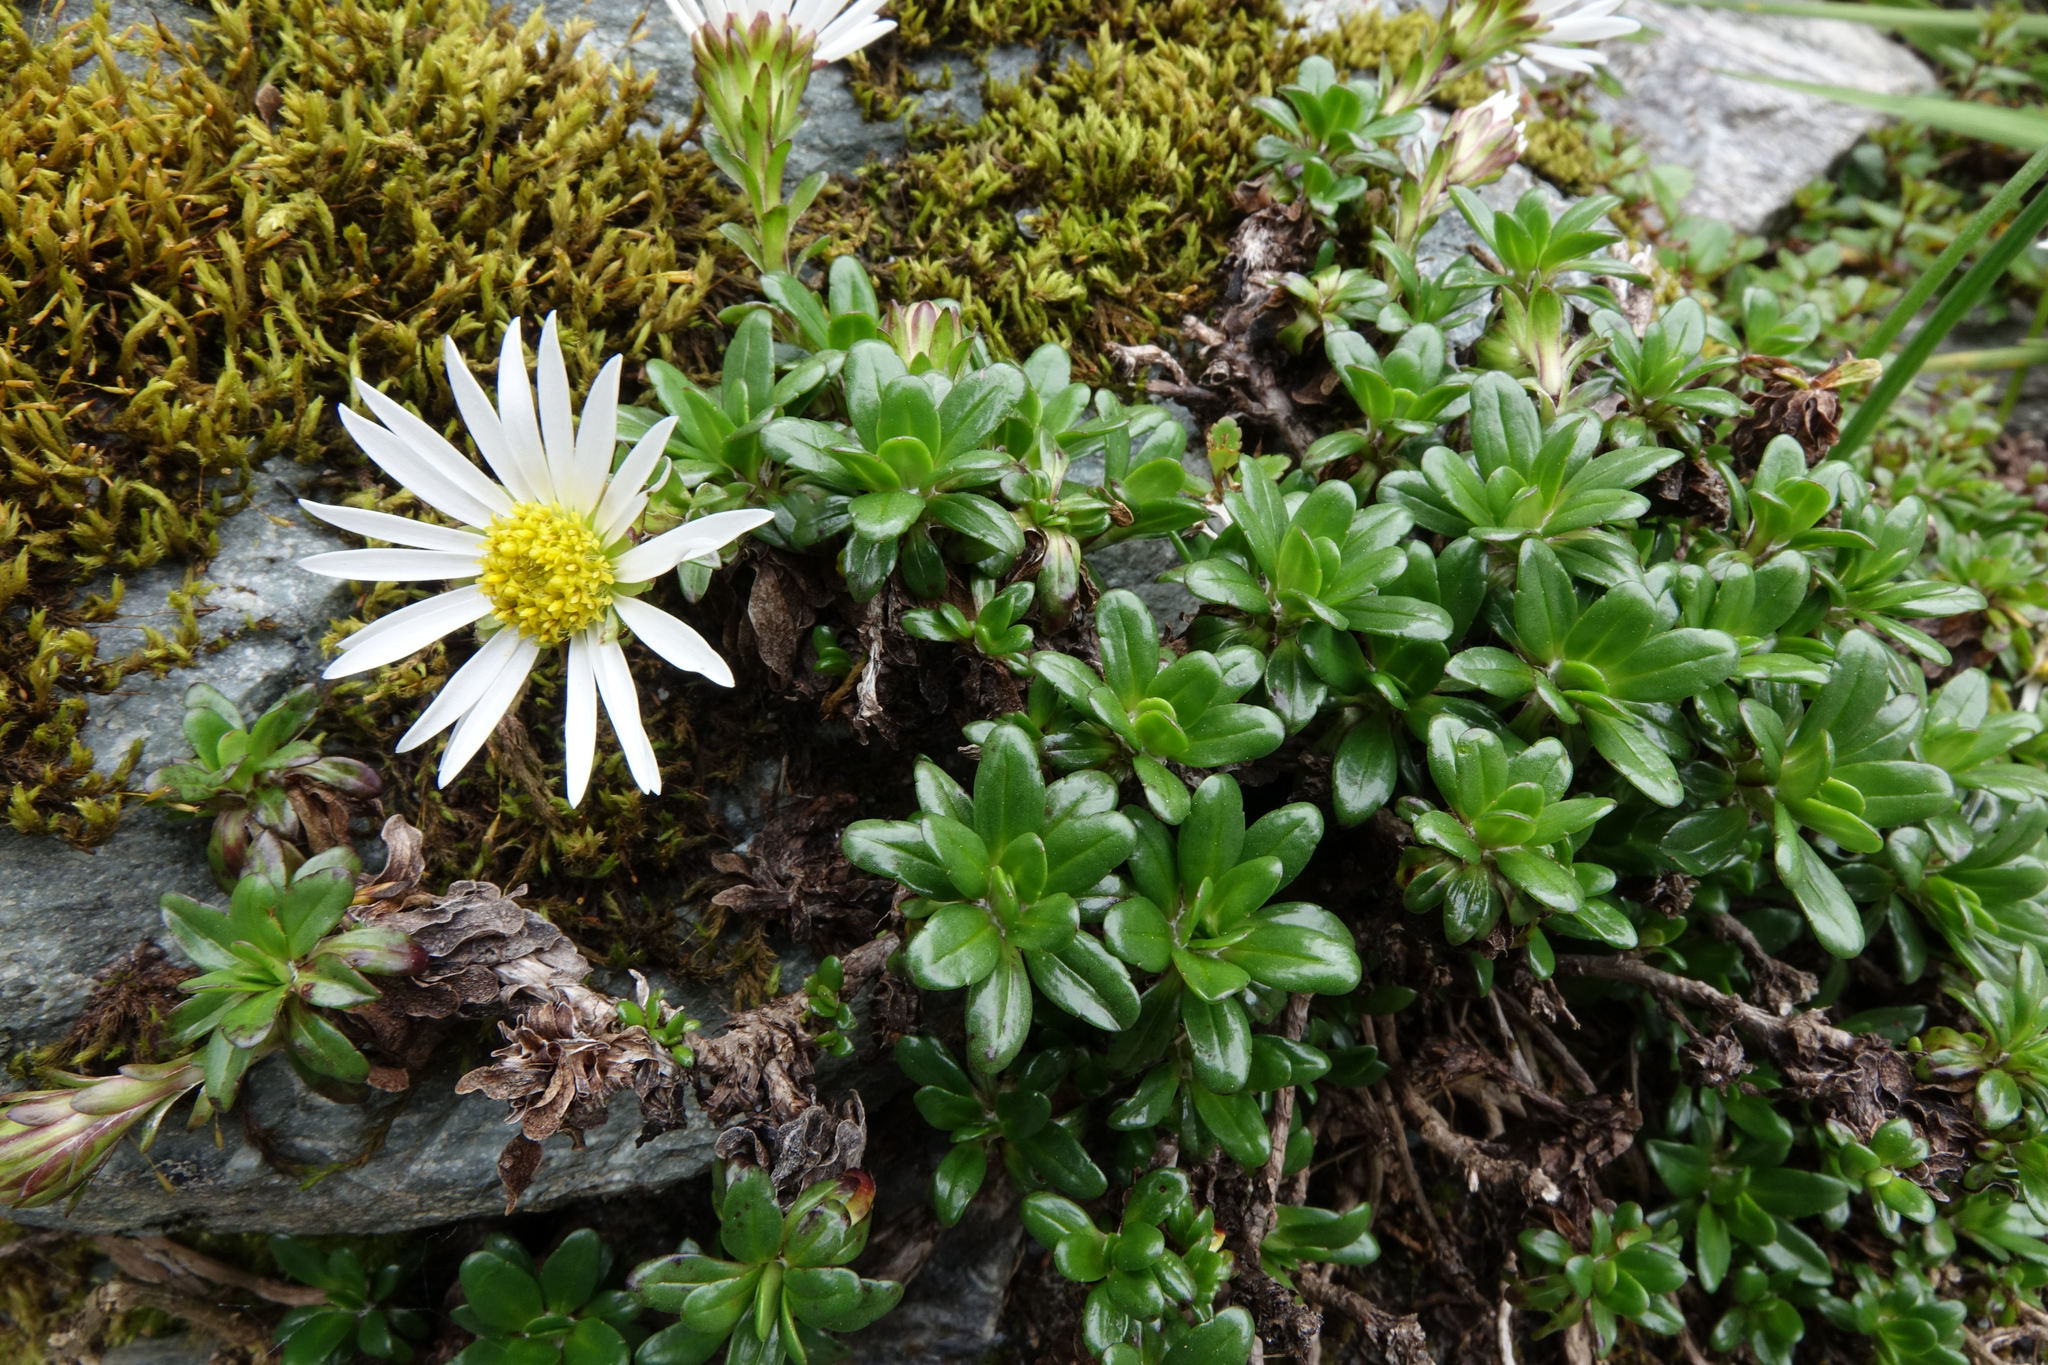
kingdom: Plantae
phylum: Tracheophyta
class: Magnoliopsida
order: Asterales
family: Asteraceae
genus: Celmisia
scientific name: Celmisia bellidioides
